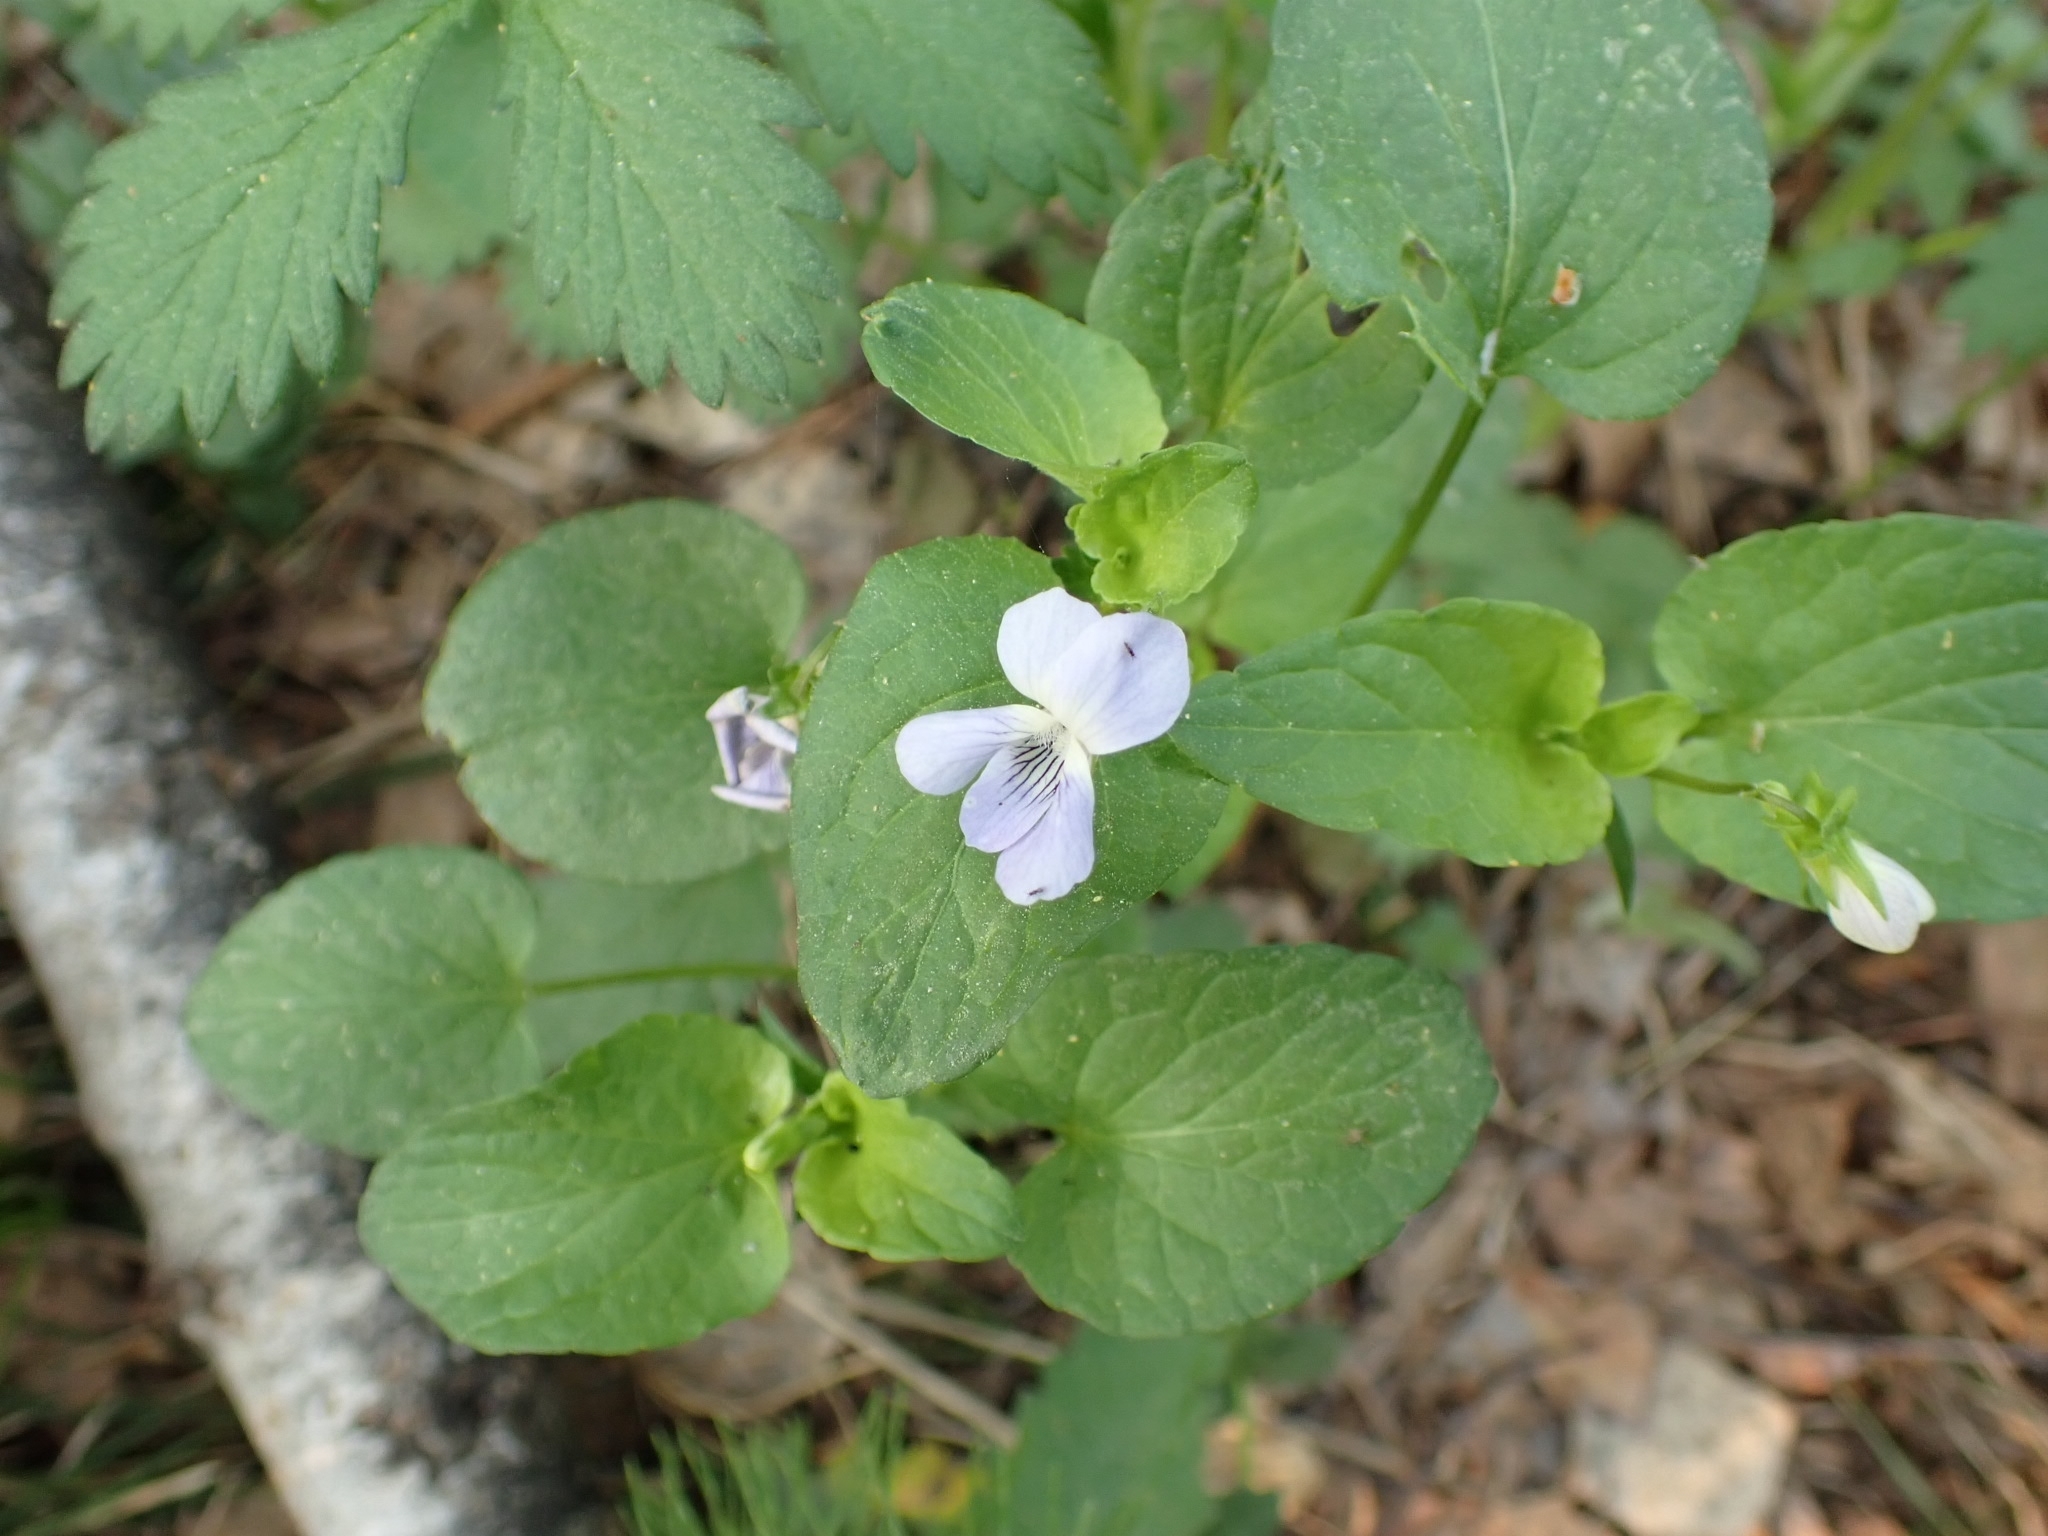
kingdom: Plantae
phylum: Tracheophyta
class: Magnoliopsida
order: Malpighiales
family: Violaceae
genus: Viola
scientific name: Viola
